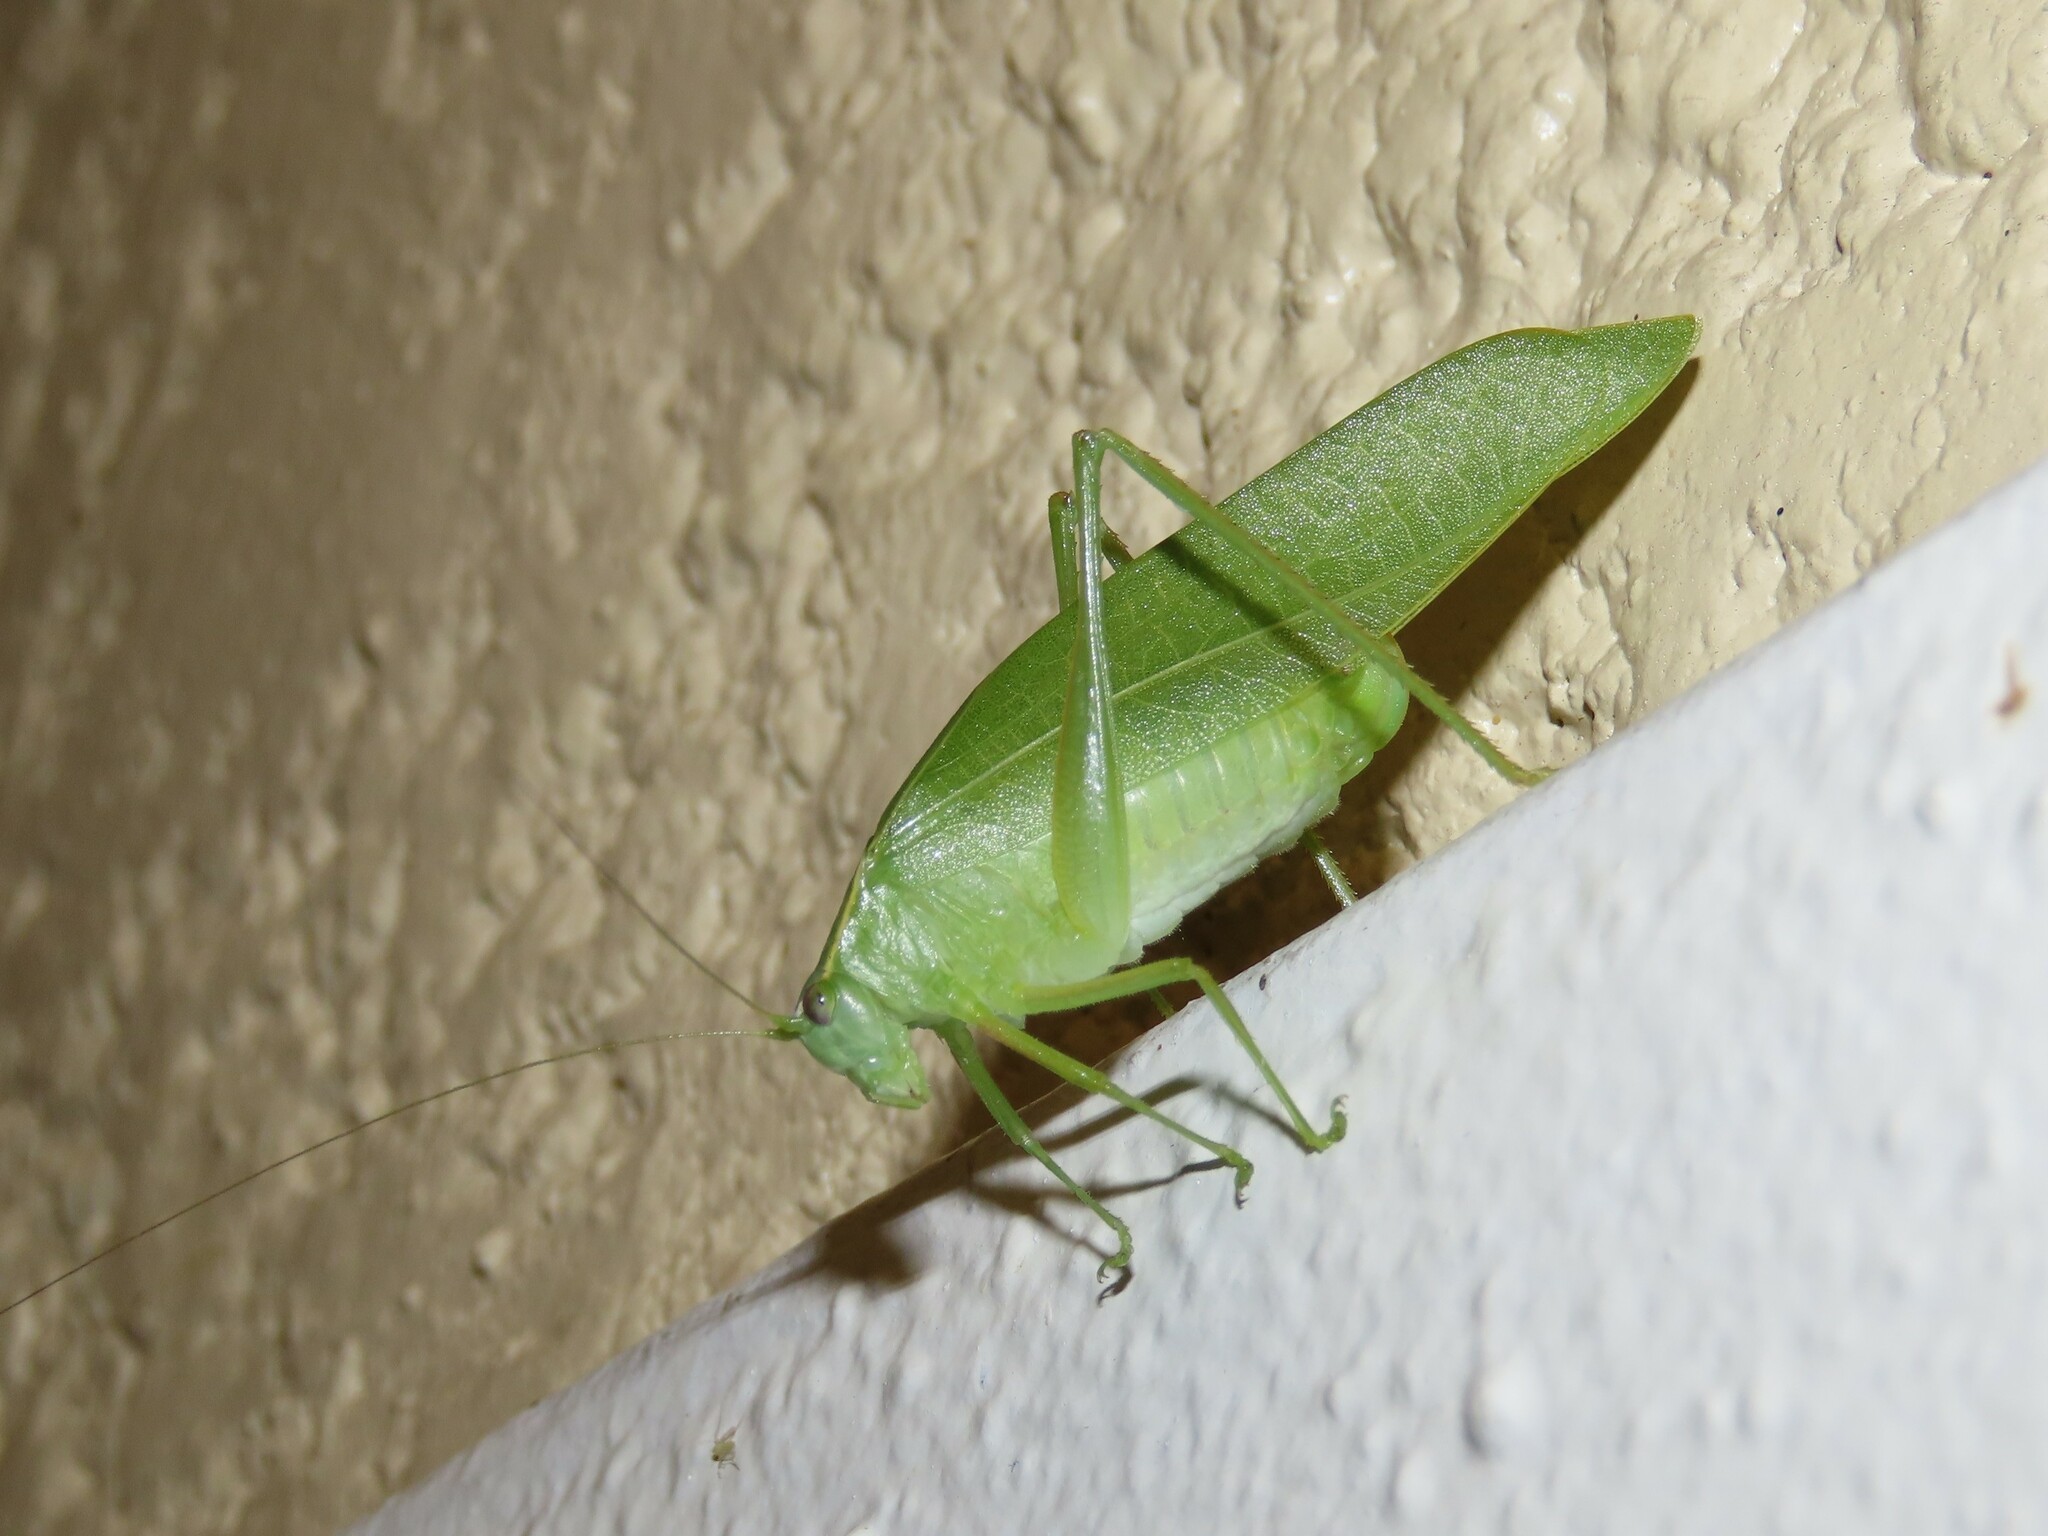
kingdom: Animalia
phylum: Arthropoda
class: Insecta
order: Orthoptera
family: Tettigoniidae
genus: Turpilia
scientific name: Turpilia rostrata
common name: Narrow-beaked katydid
